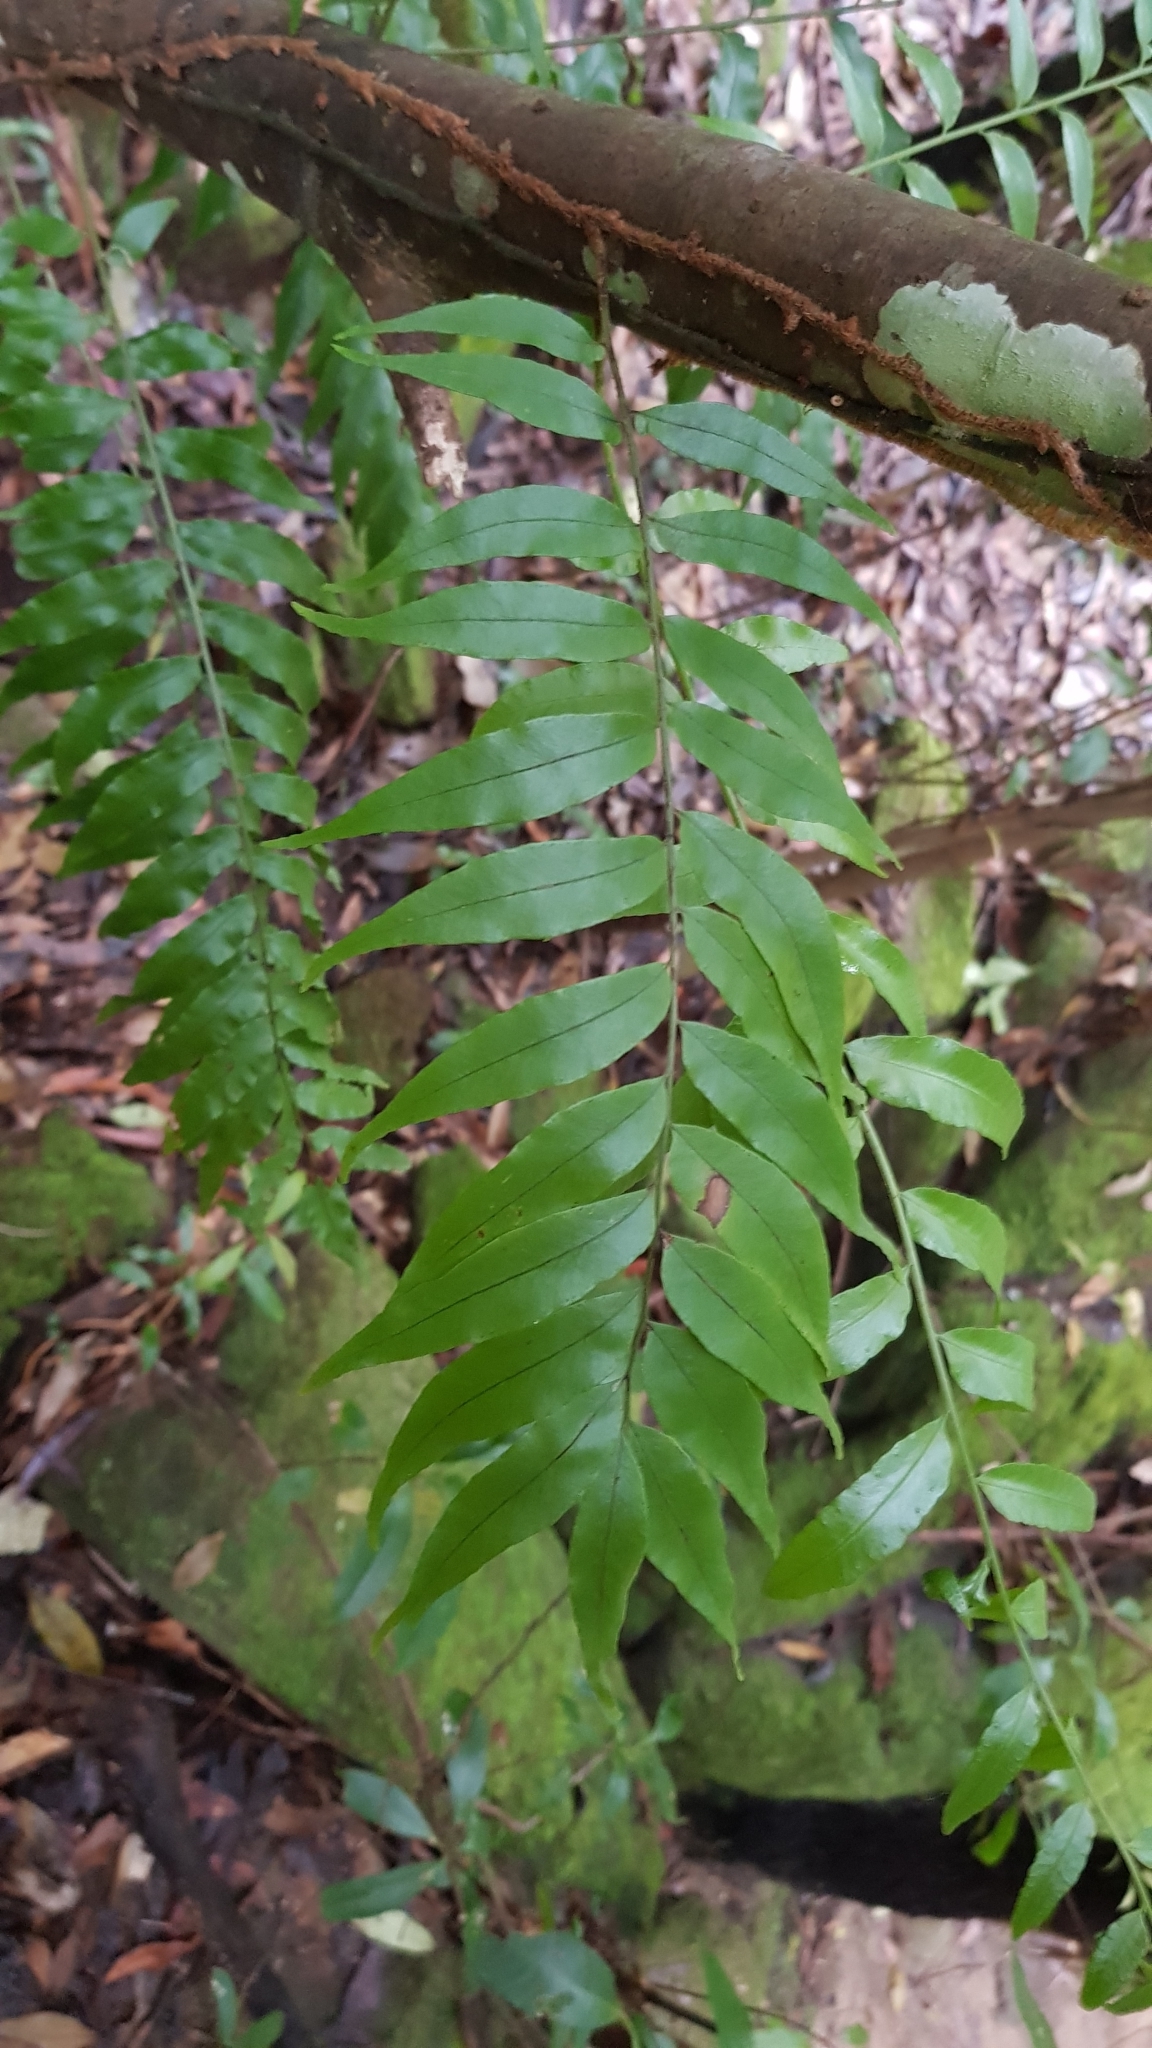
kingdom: Plantae
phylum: Tracheophyta
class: Polypodiopsida
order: Polypodiales
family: Tectariaceae
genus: Arthropteris
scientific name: Arthropteris tenella
